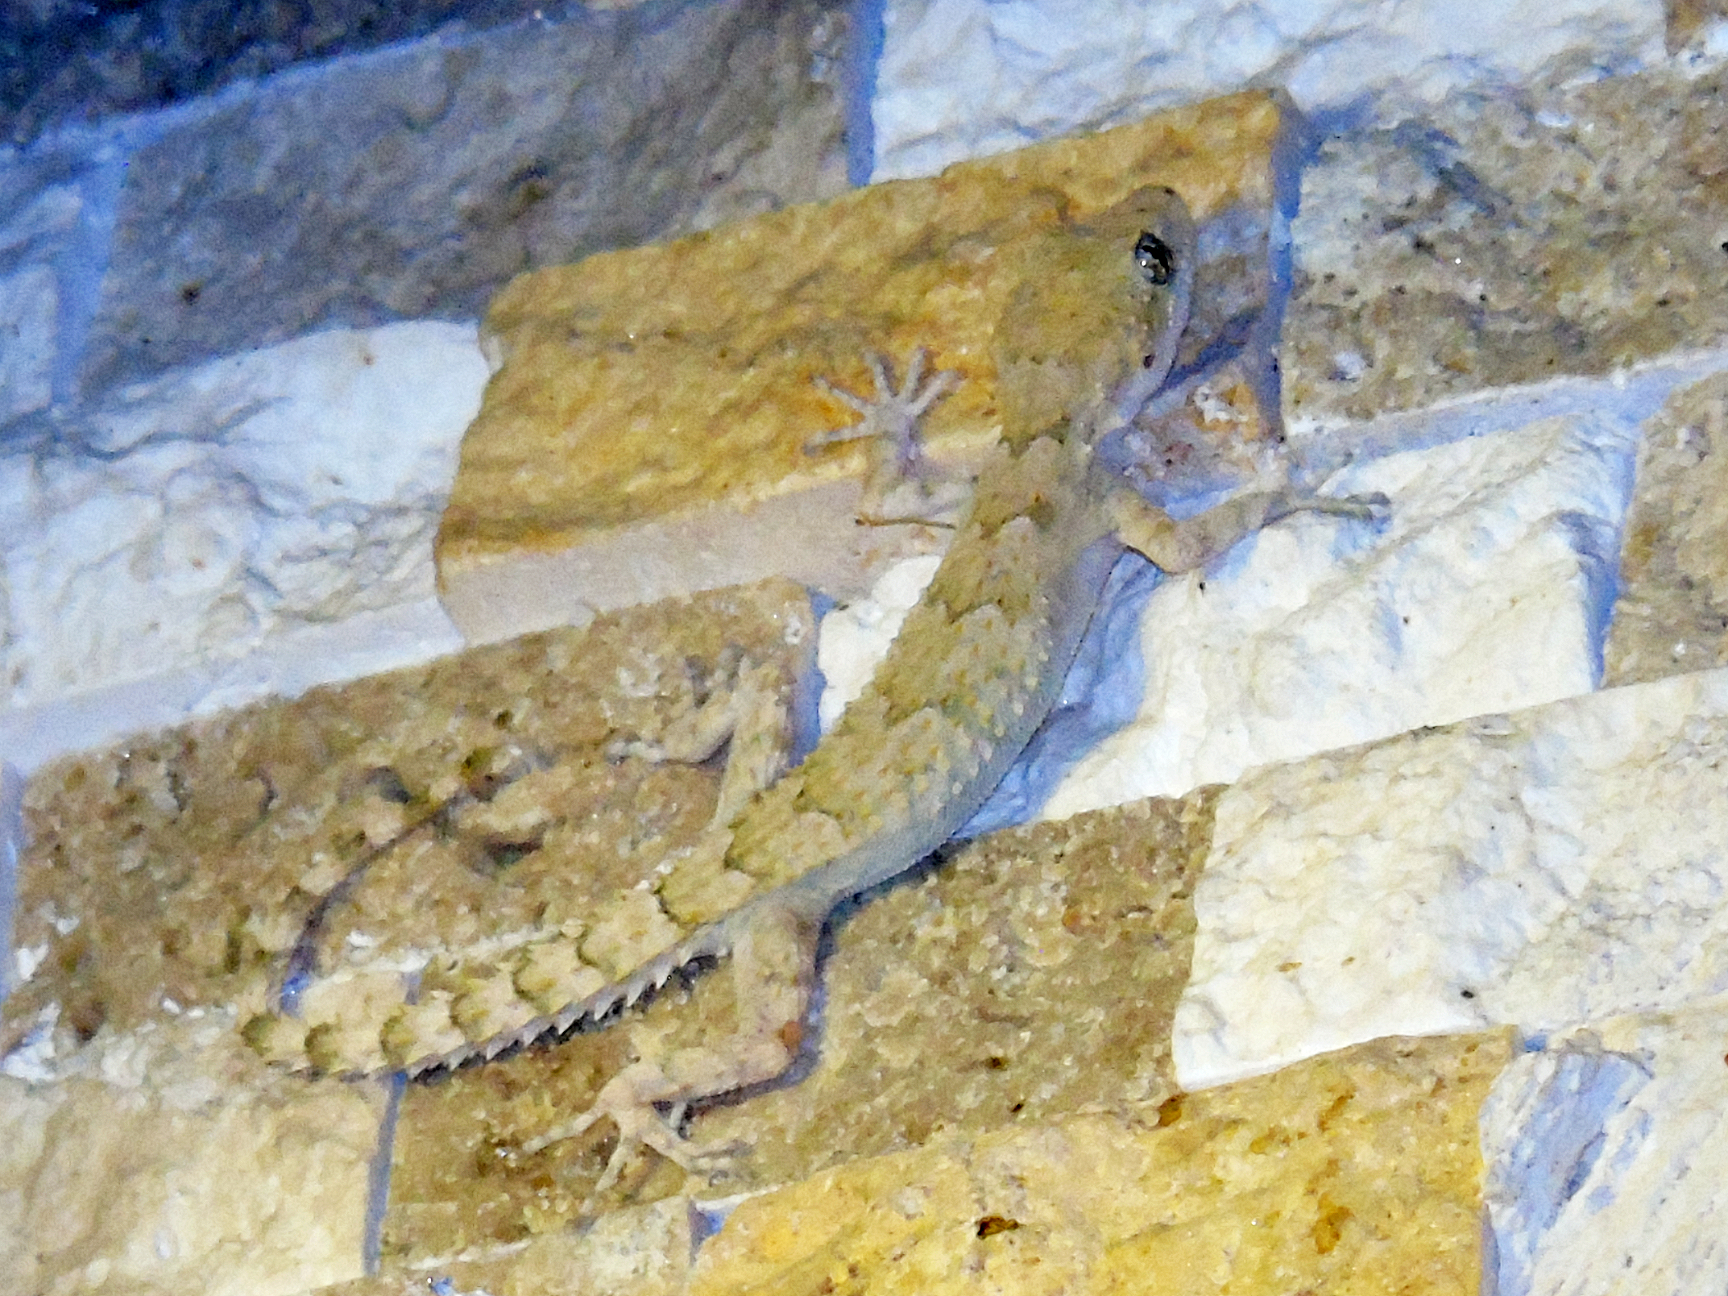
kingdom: Animalia
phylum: Chordata
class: Squamata
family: Gekkonidae
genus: Mediodactylus
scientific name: Mediodactylus heterocercus
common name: Asia minor thin-toed gecko
